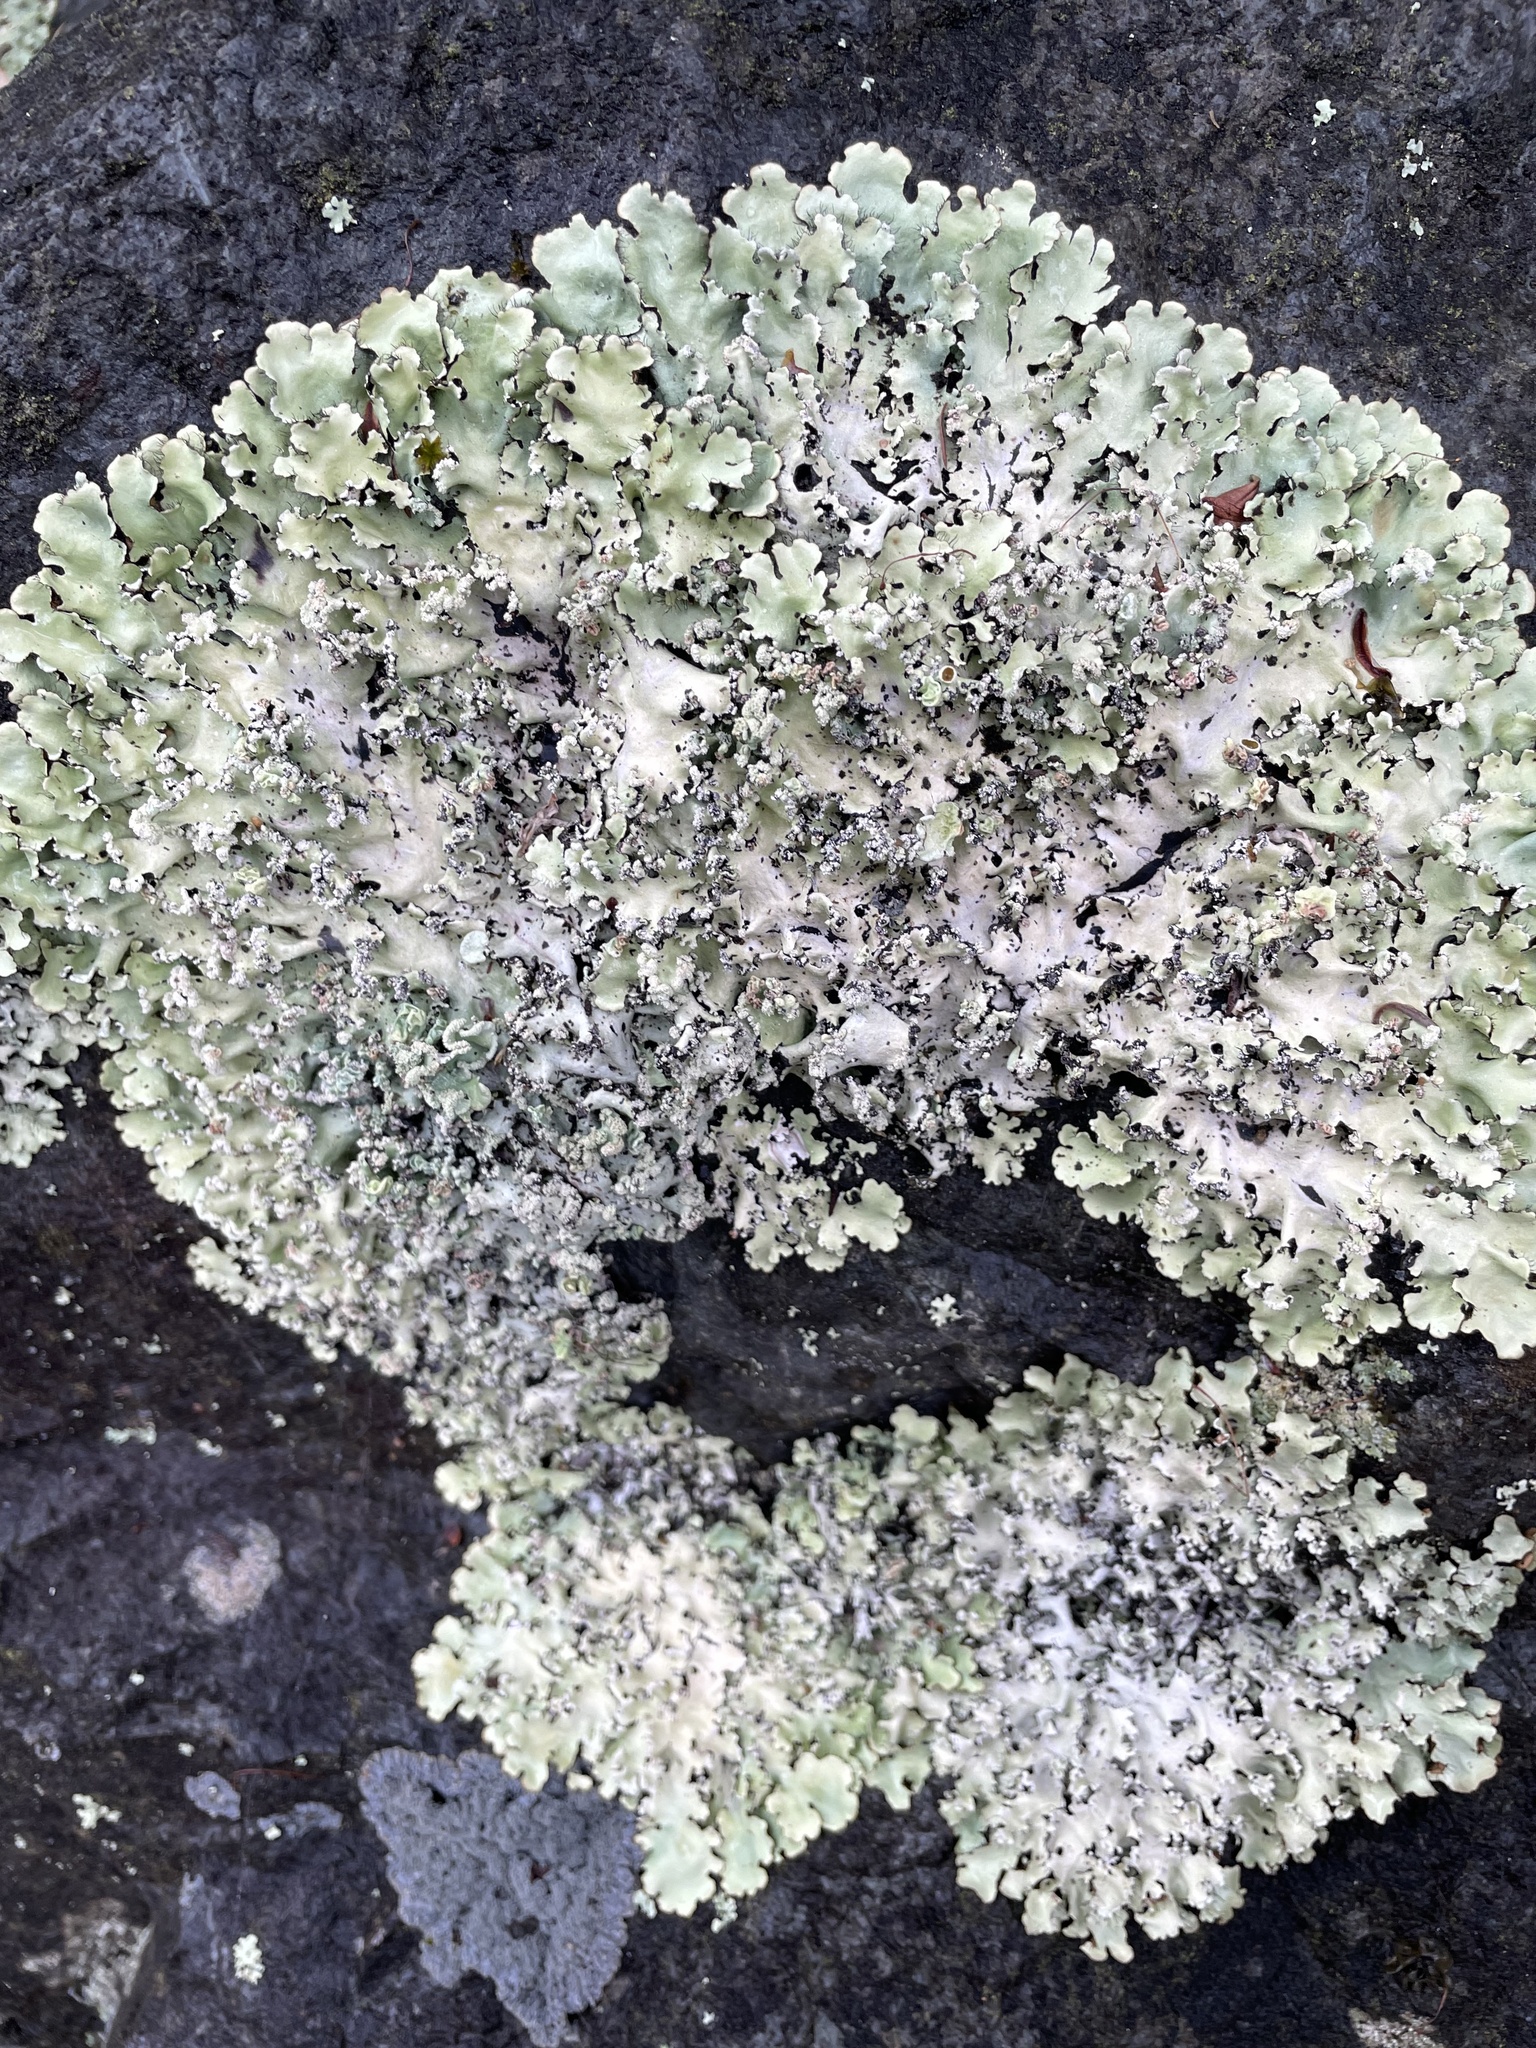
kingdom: Fungi
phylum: Ascomycota
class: Lecanoromycetes
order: Lecanorales
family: Parmeliaceae
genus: Parmotrema
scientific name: Parmotrema reticulatum
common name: Black sheet lichen
